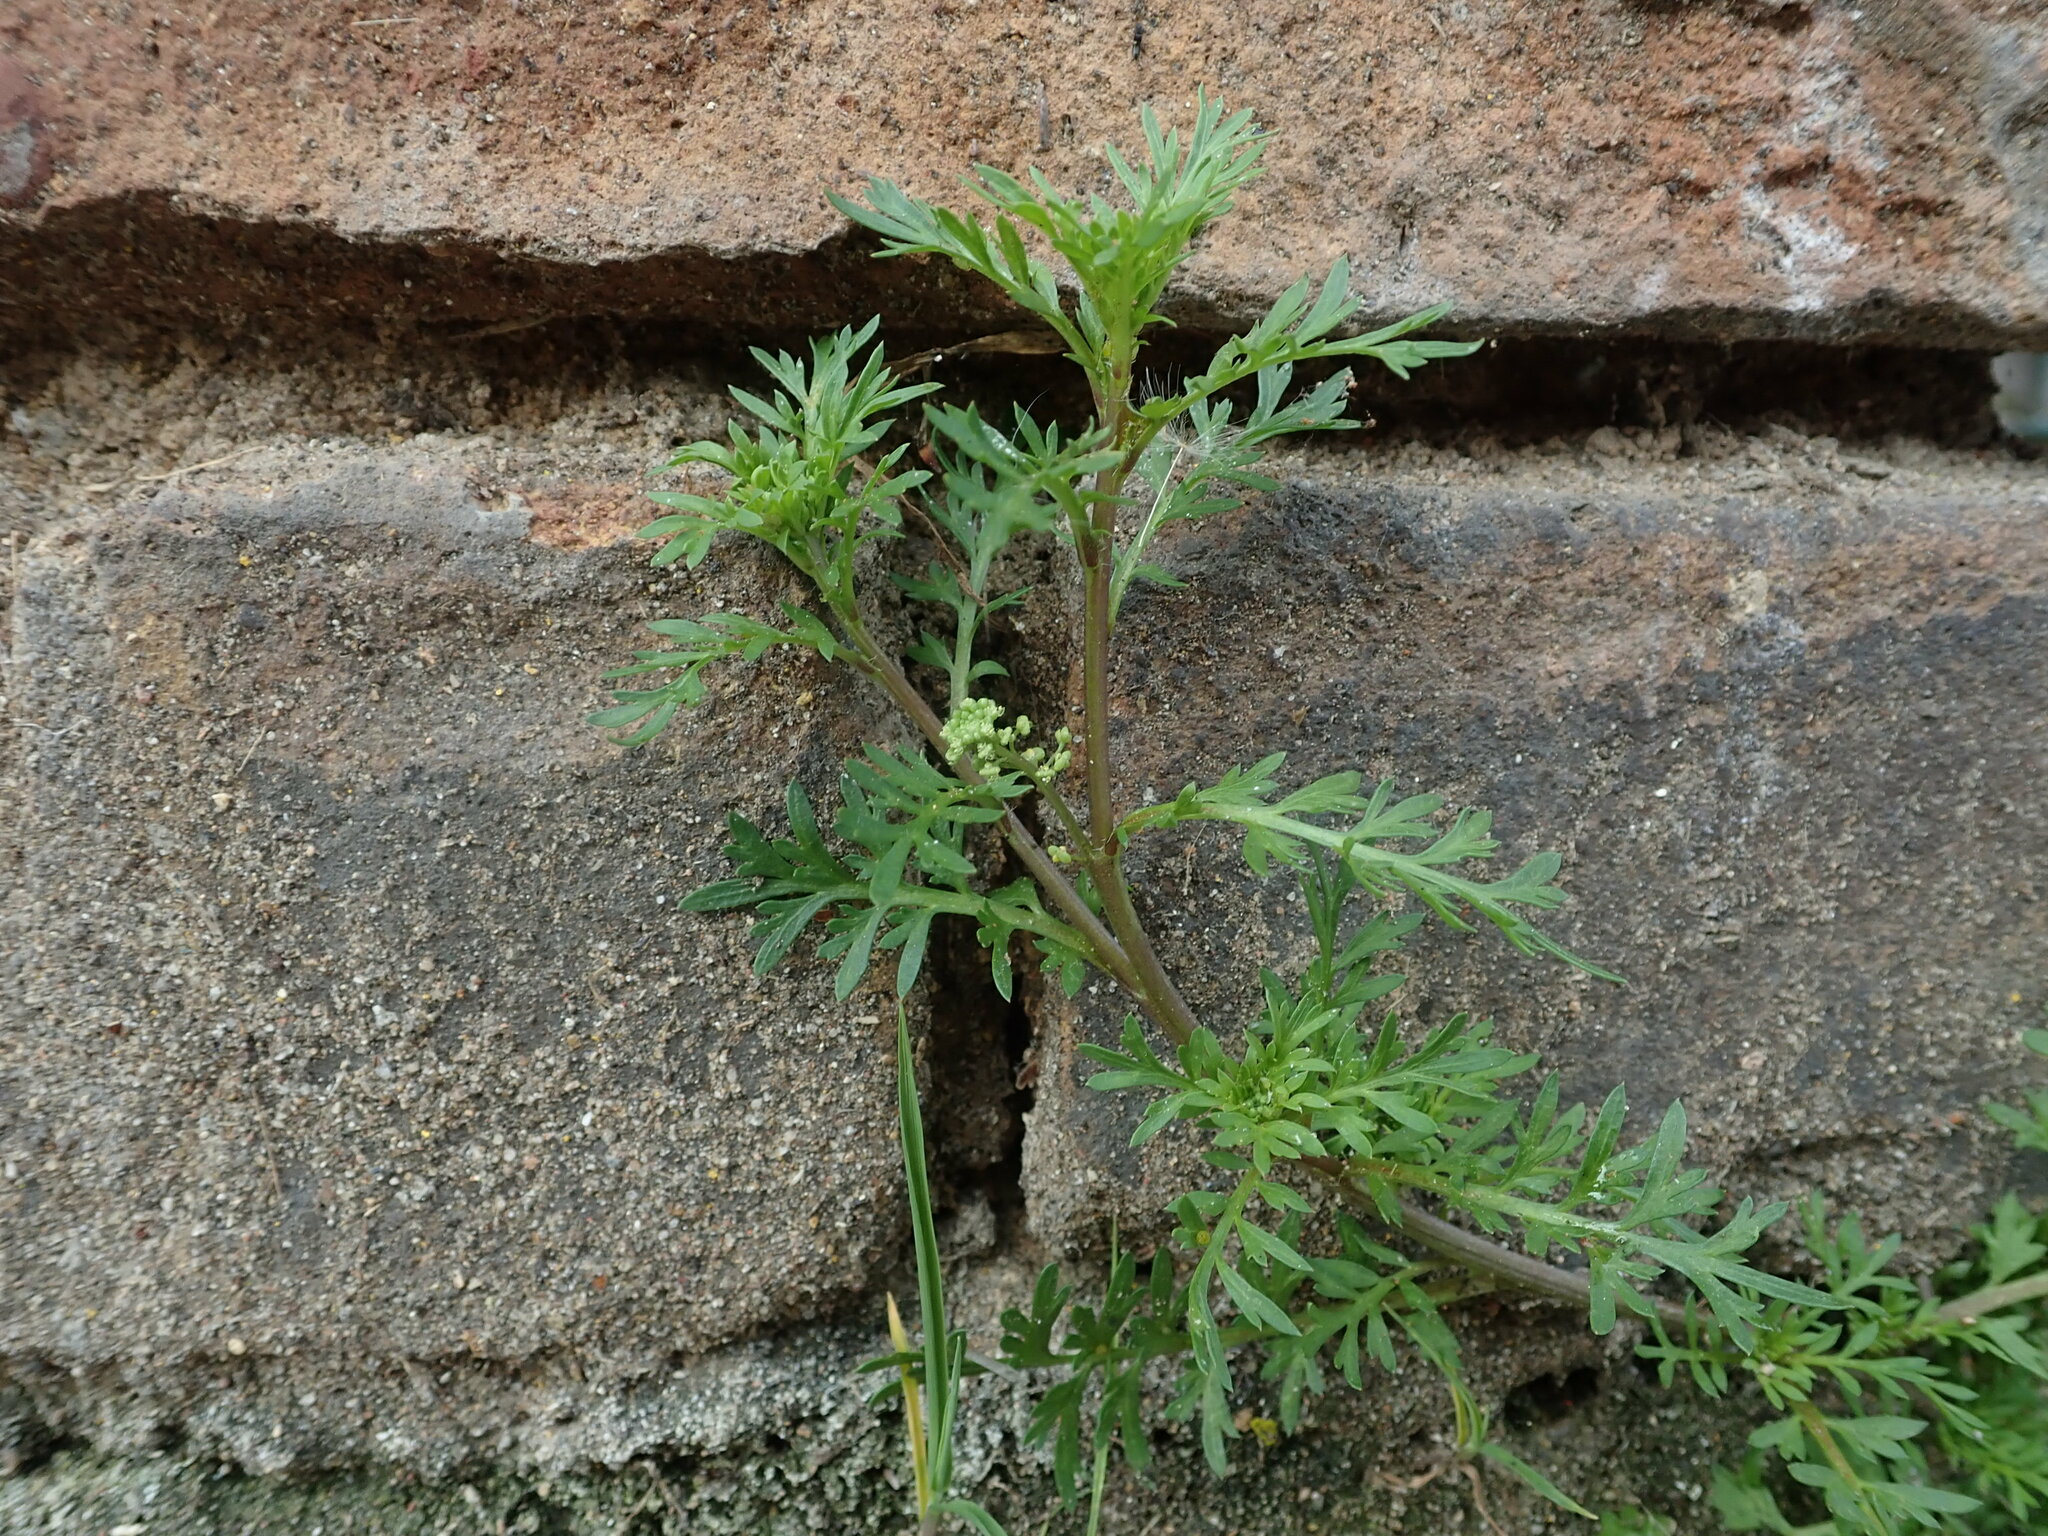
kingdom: Plantae
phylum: Tracheophyta
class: Magnoliopsida
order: Brassicales
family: Brassicaceae
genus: Lepidium
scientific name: Lepidium didymum
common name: Lesser swinecress
